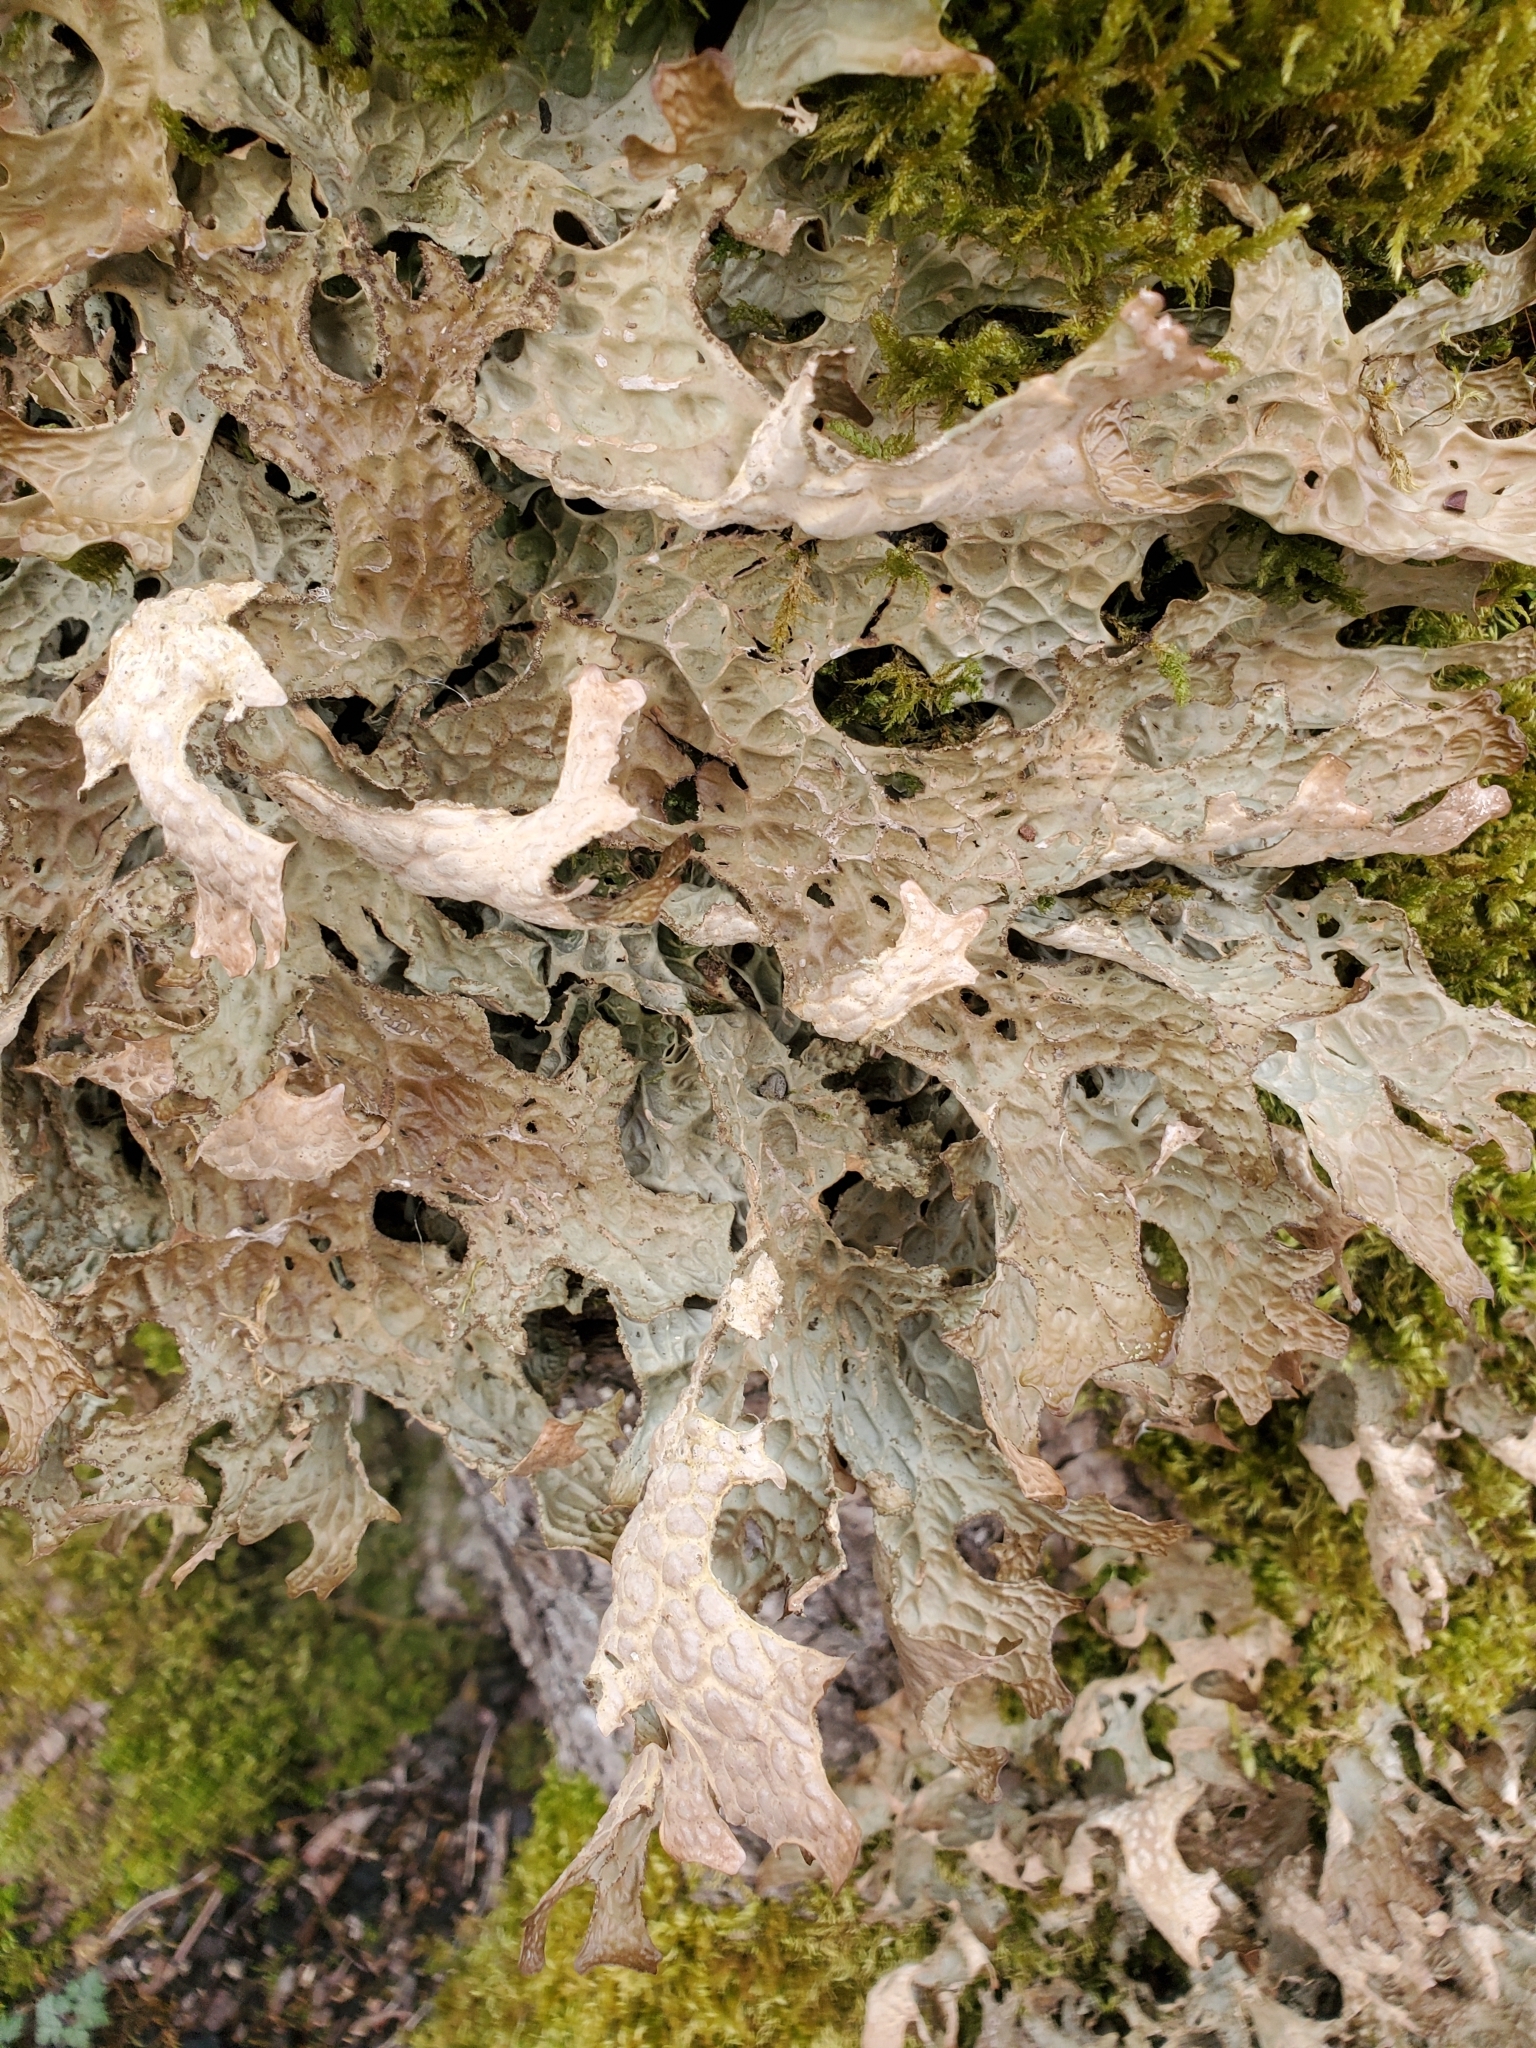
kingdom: Fungi
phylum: Ascomycota
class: Lecanoromycetes
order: Peltigerales
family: Lobariaceae
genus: Lobaria
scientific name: Lobaria pulmonaria
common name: Lungwort
